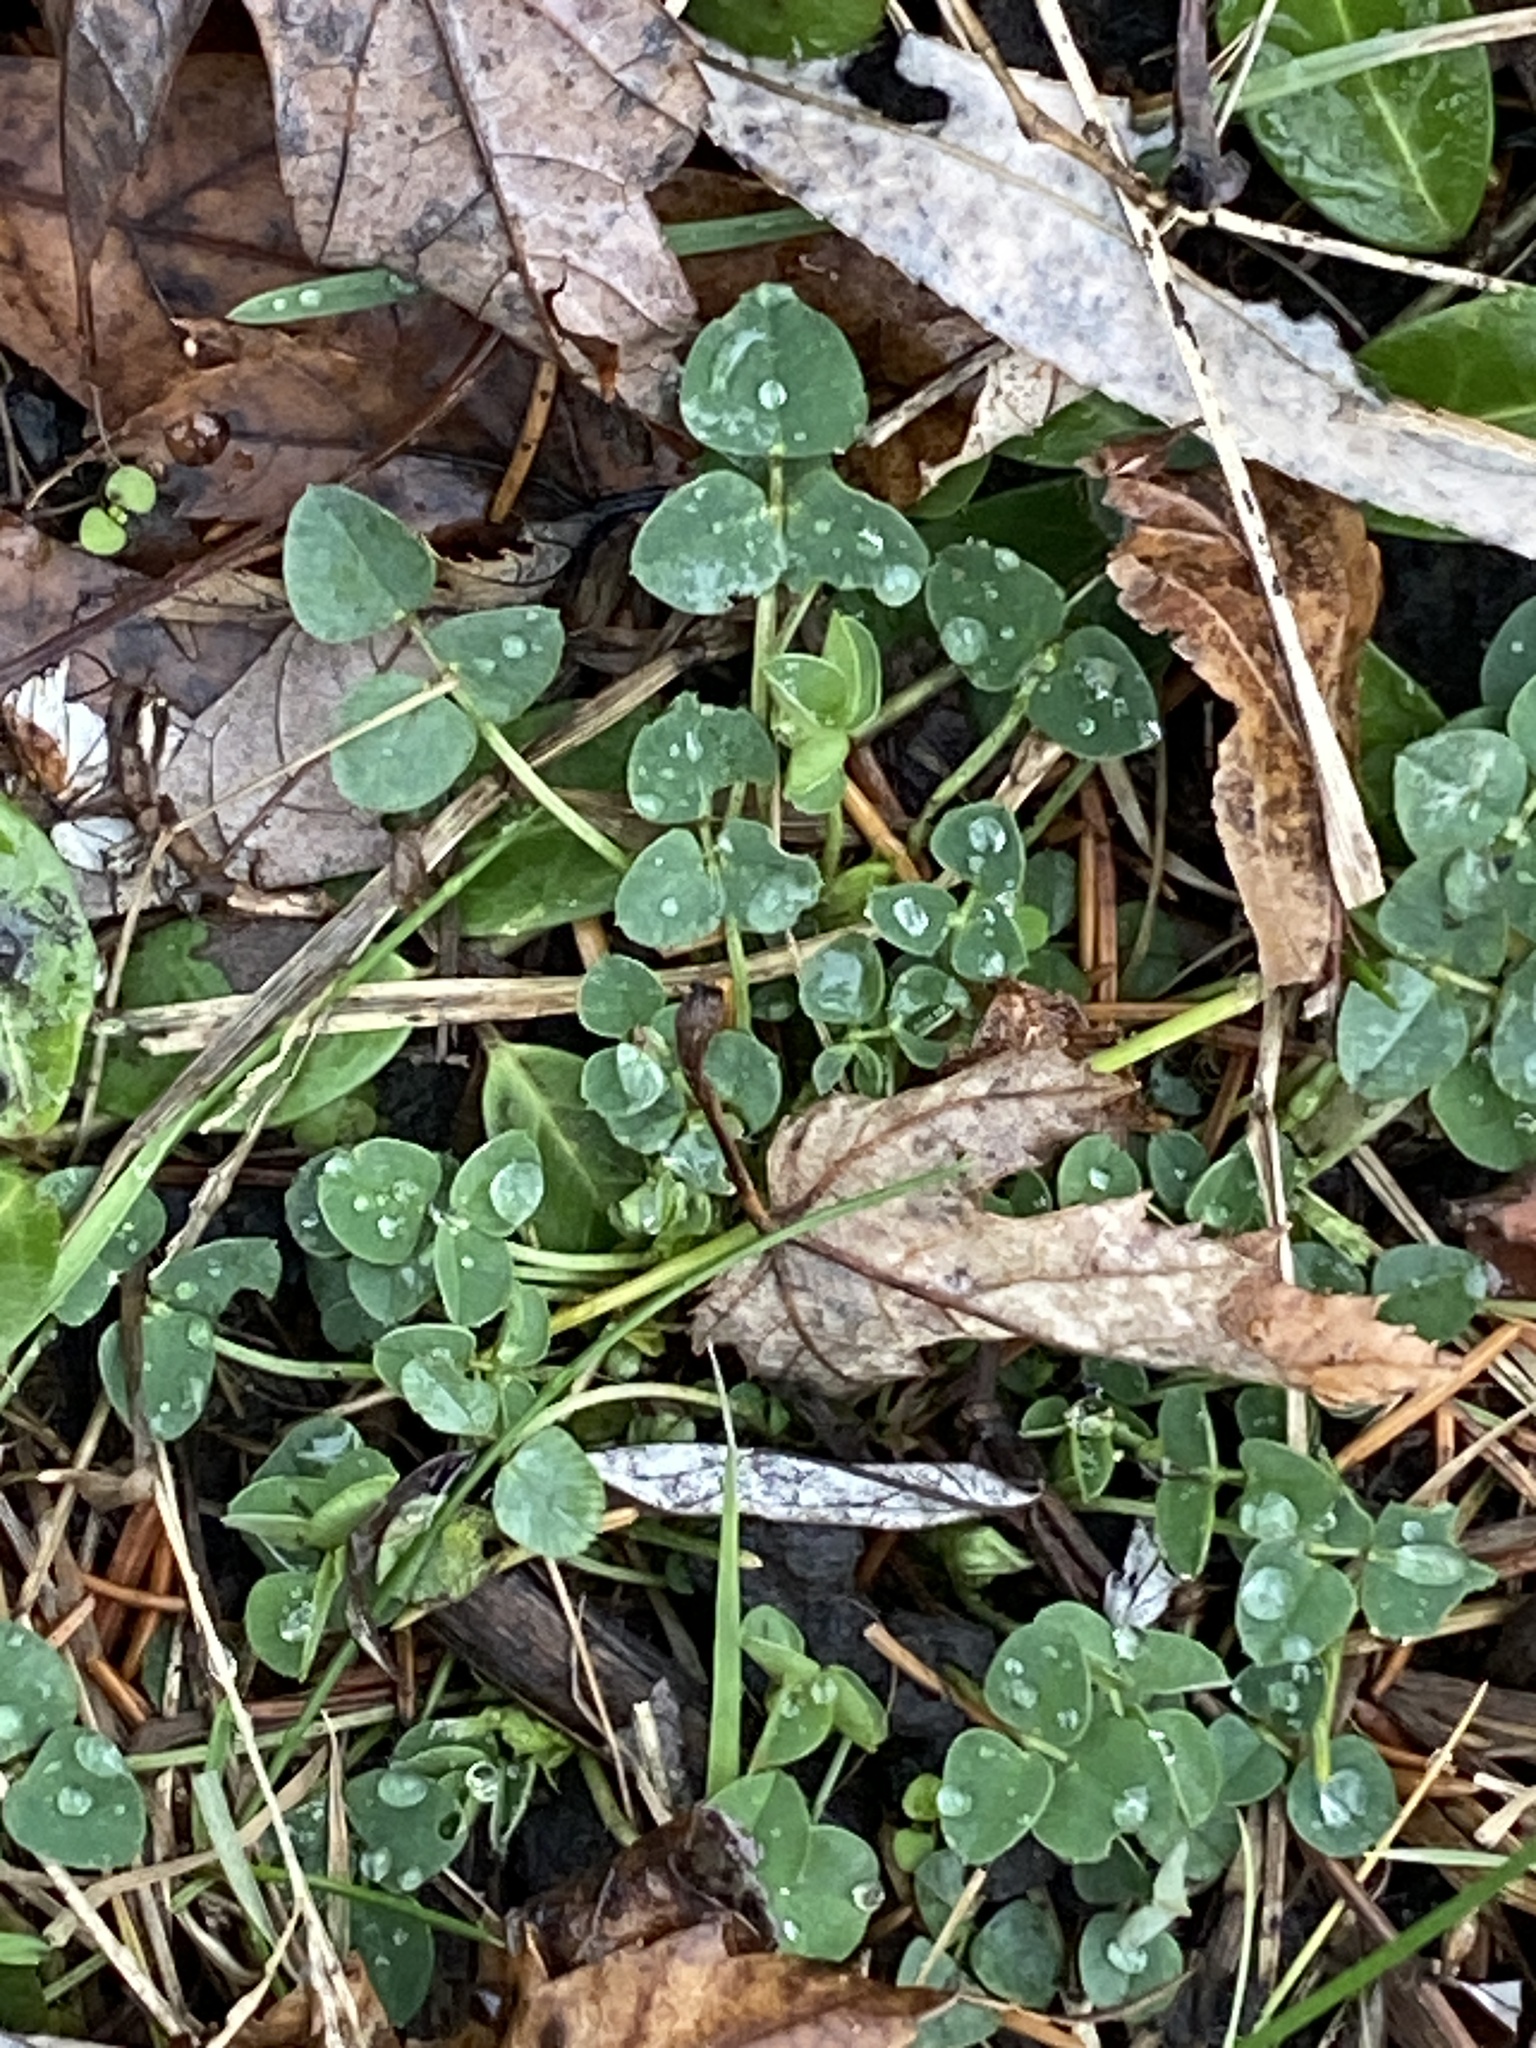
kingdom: Plantae
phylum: Tracheophyta
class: Magnoliopsida
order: Fabales
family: Fabaceae
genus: Medicago
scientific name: Medicago lupulina
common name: Black medick
